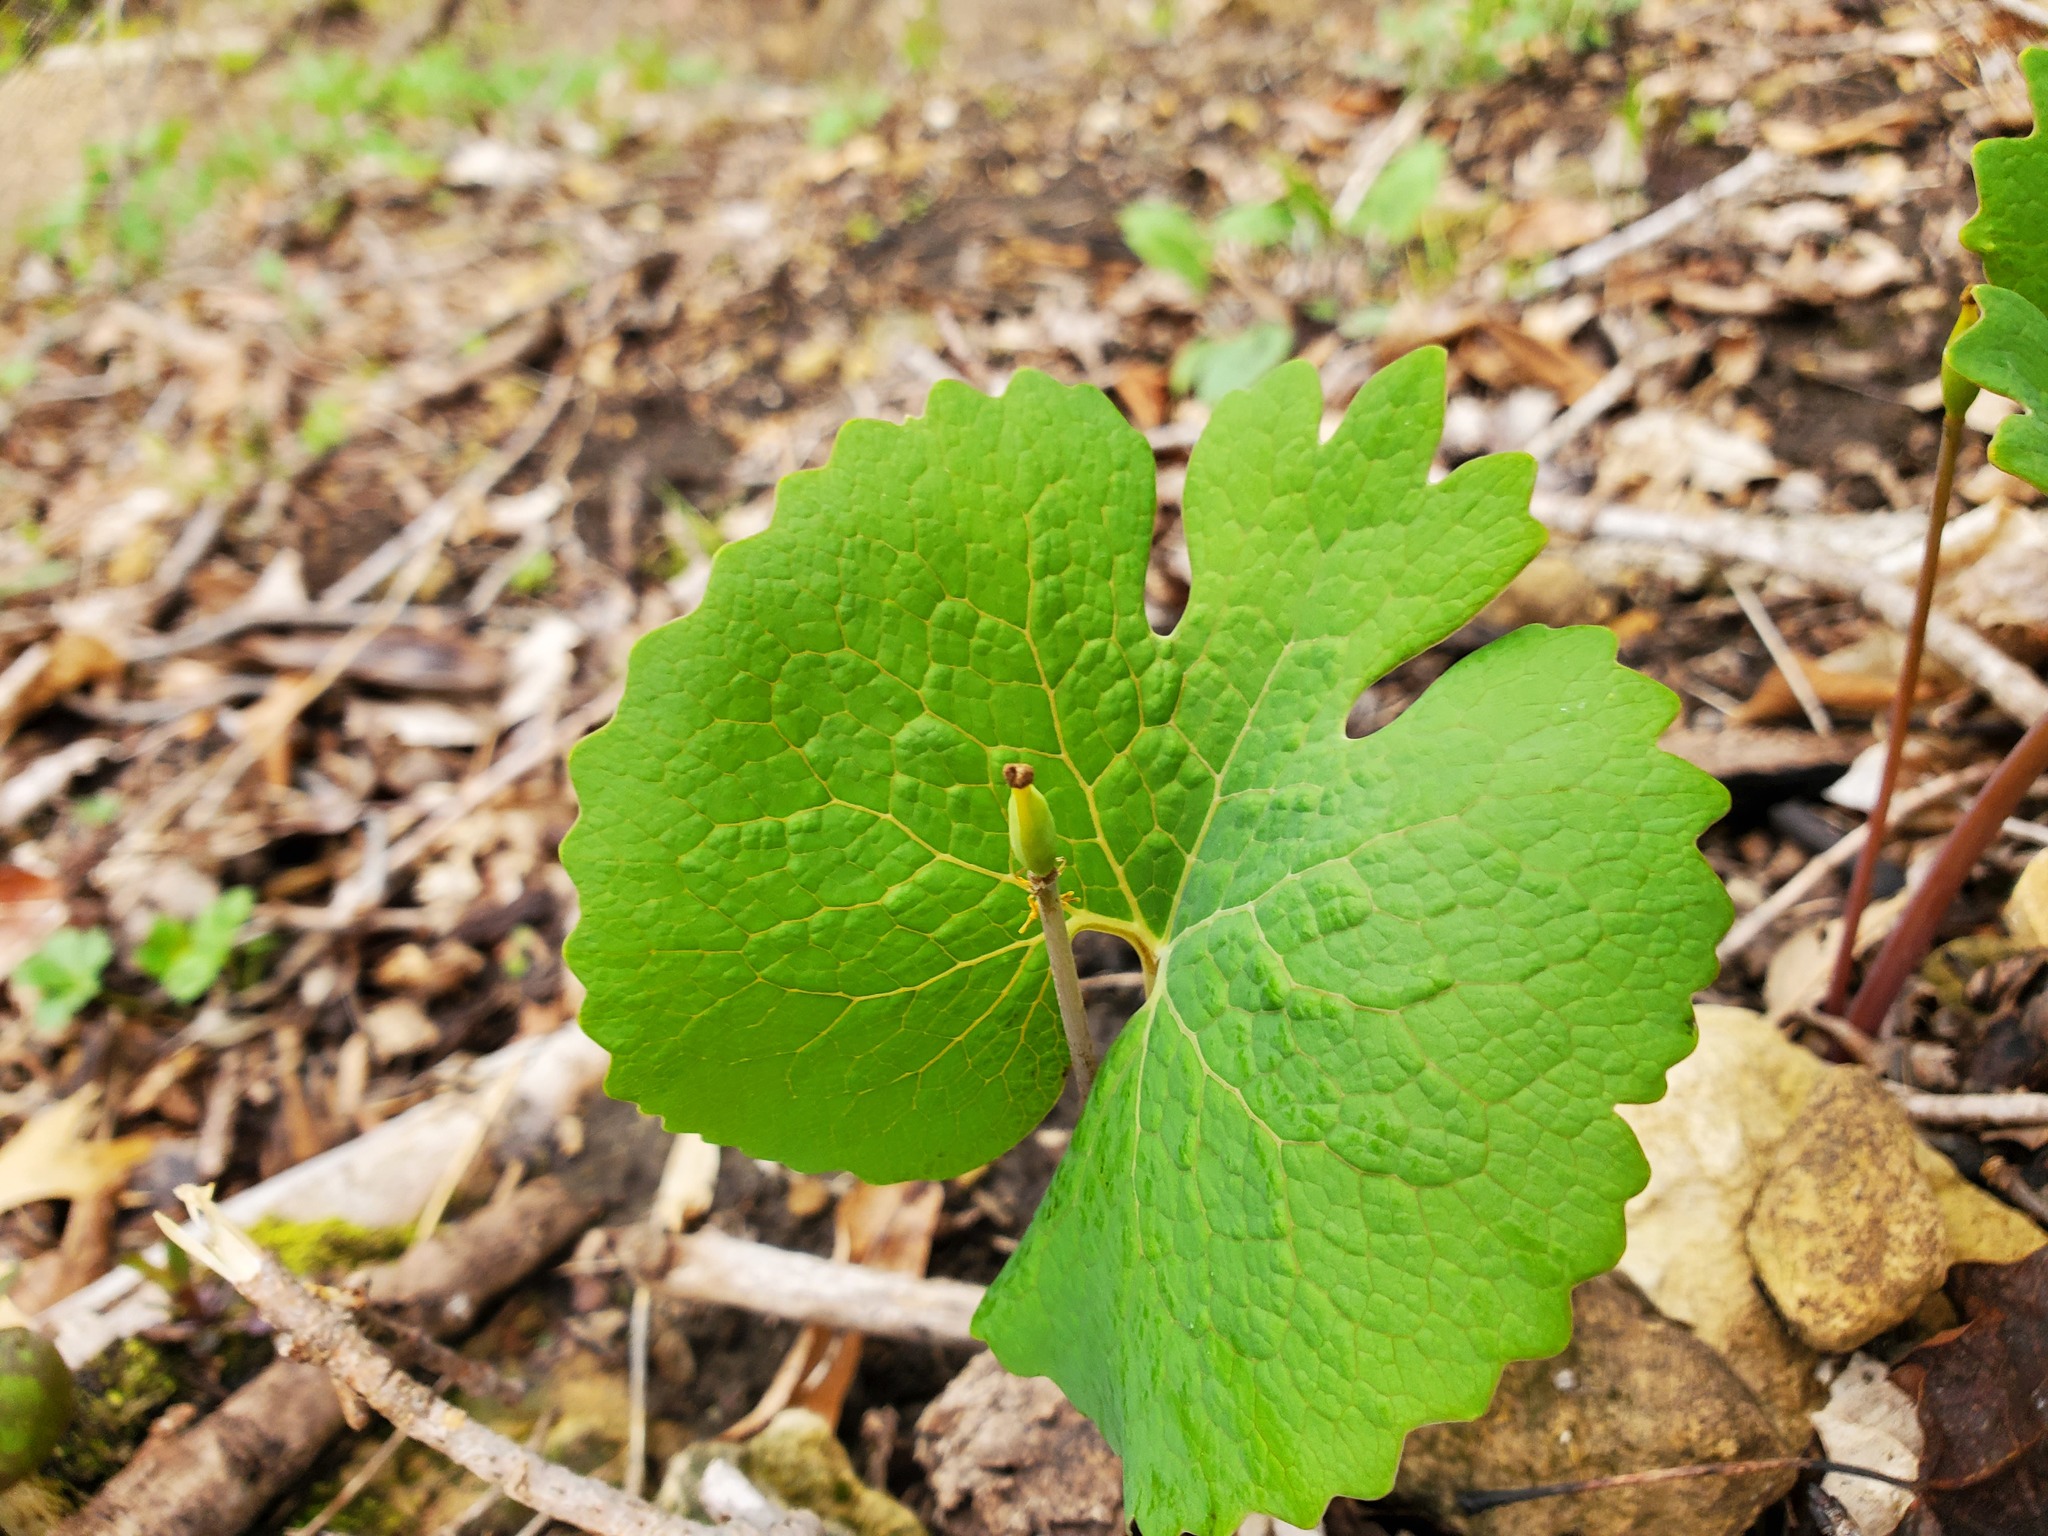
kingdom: Plantae
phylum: Tracheophyta
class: Magnoliopsida
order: Ranunculales
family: Papaveraceae
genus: Sanguinaria
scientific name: Sanguinaria canadensis
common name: Bloodroot
